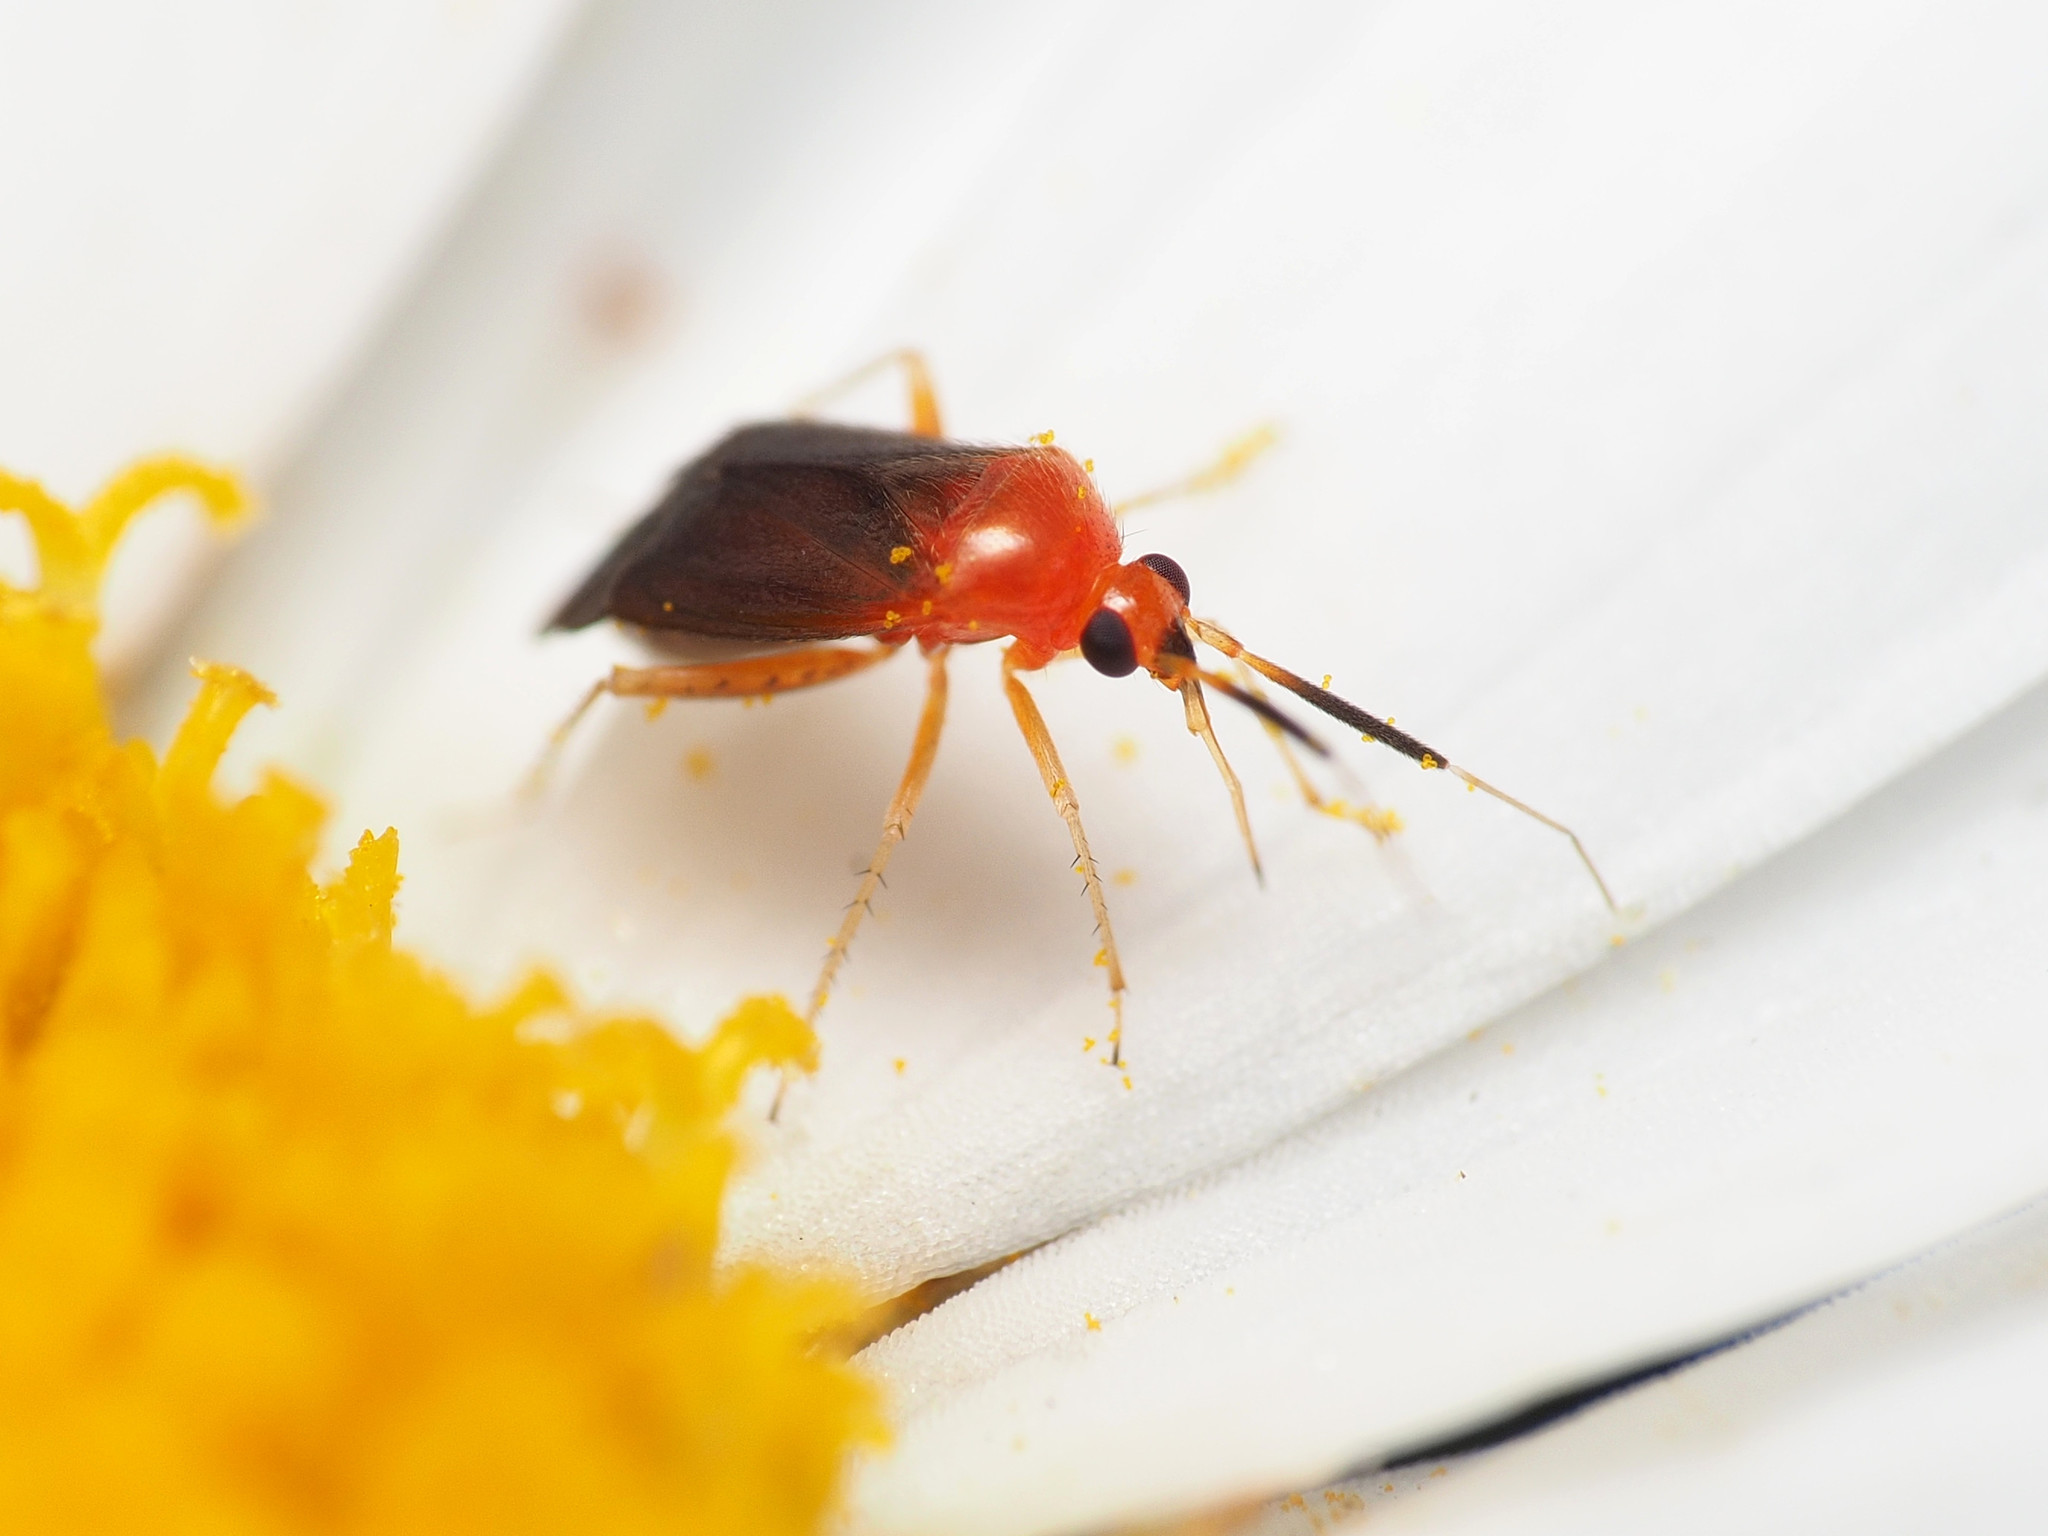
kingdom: Animalia
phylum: Arthropoda
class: Insecta
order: Hemiptera
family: Miridae
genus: Rhinocapsus
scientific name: Rhinocapsus rubricans
